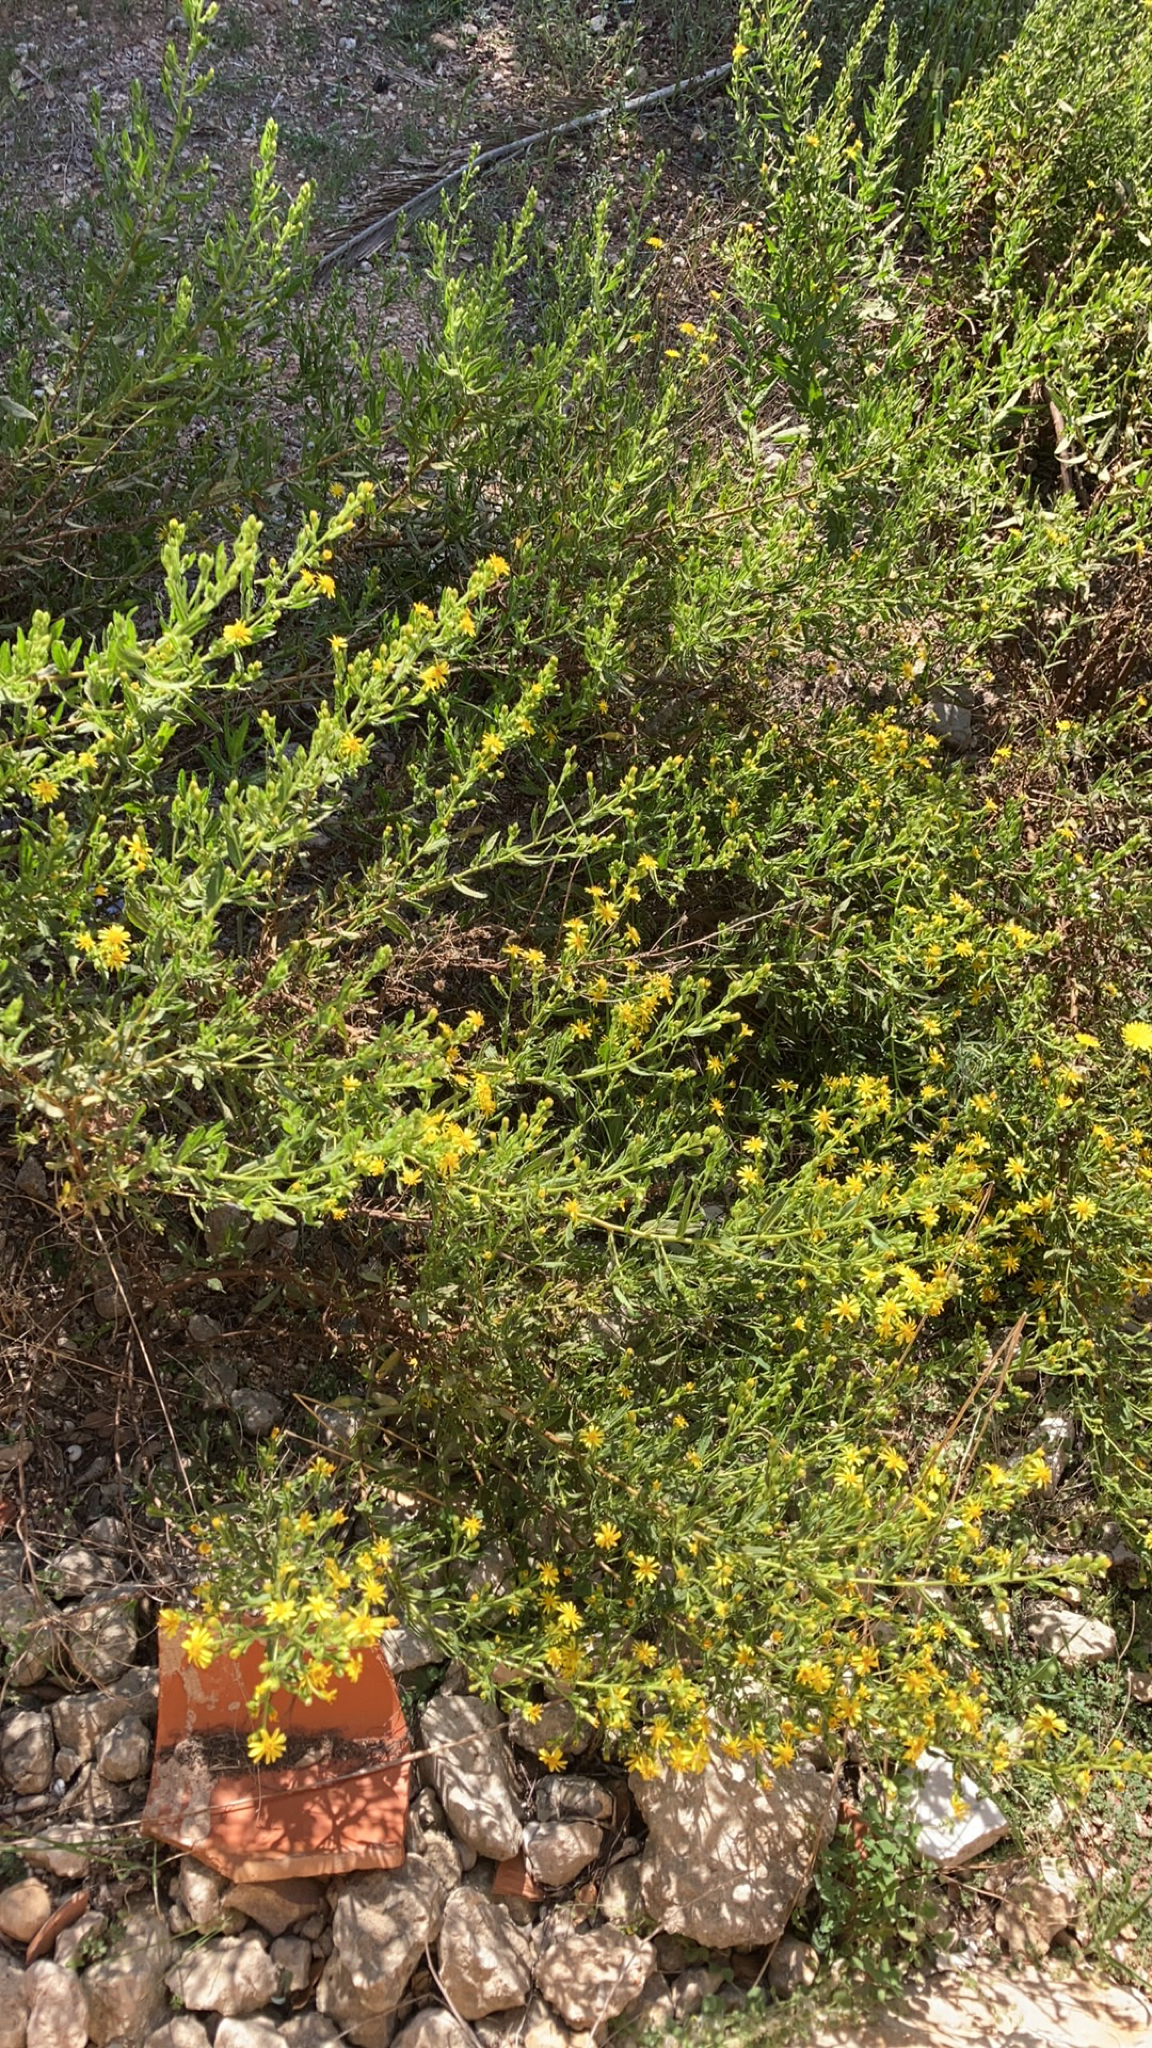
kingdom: Plantae
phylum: Tracheophyta
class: Magnoliopsida
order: Asterales
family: Asteraceae
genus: Dittrichia
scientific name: Dittrichia viscosa
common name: Woody fleabane
